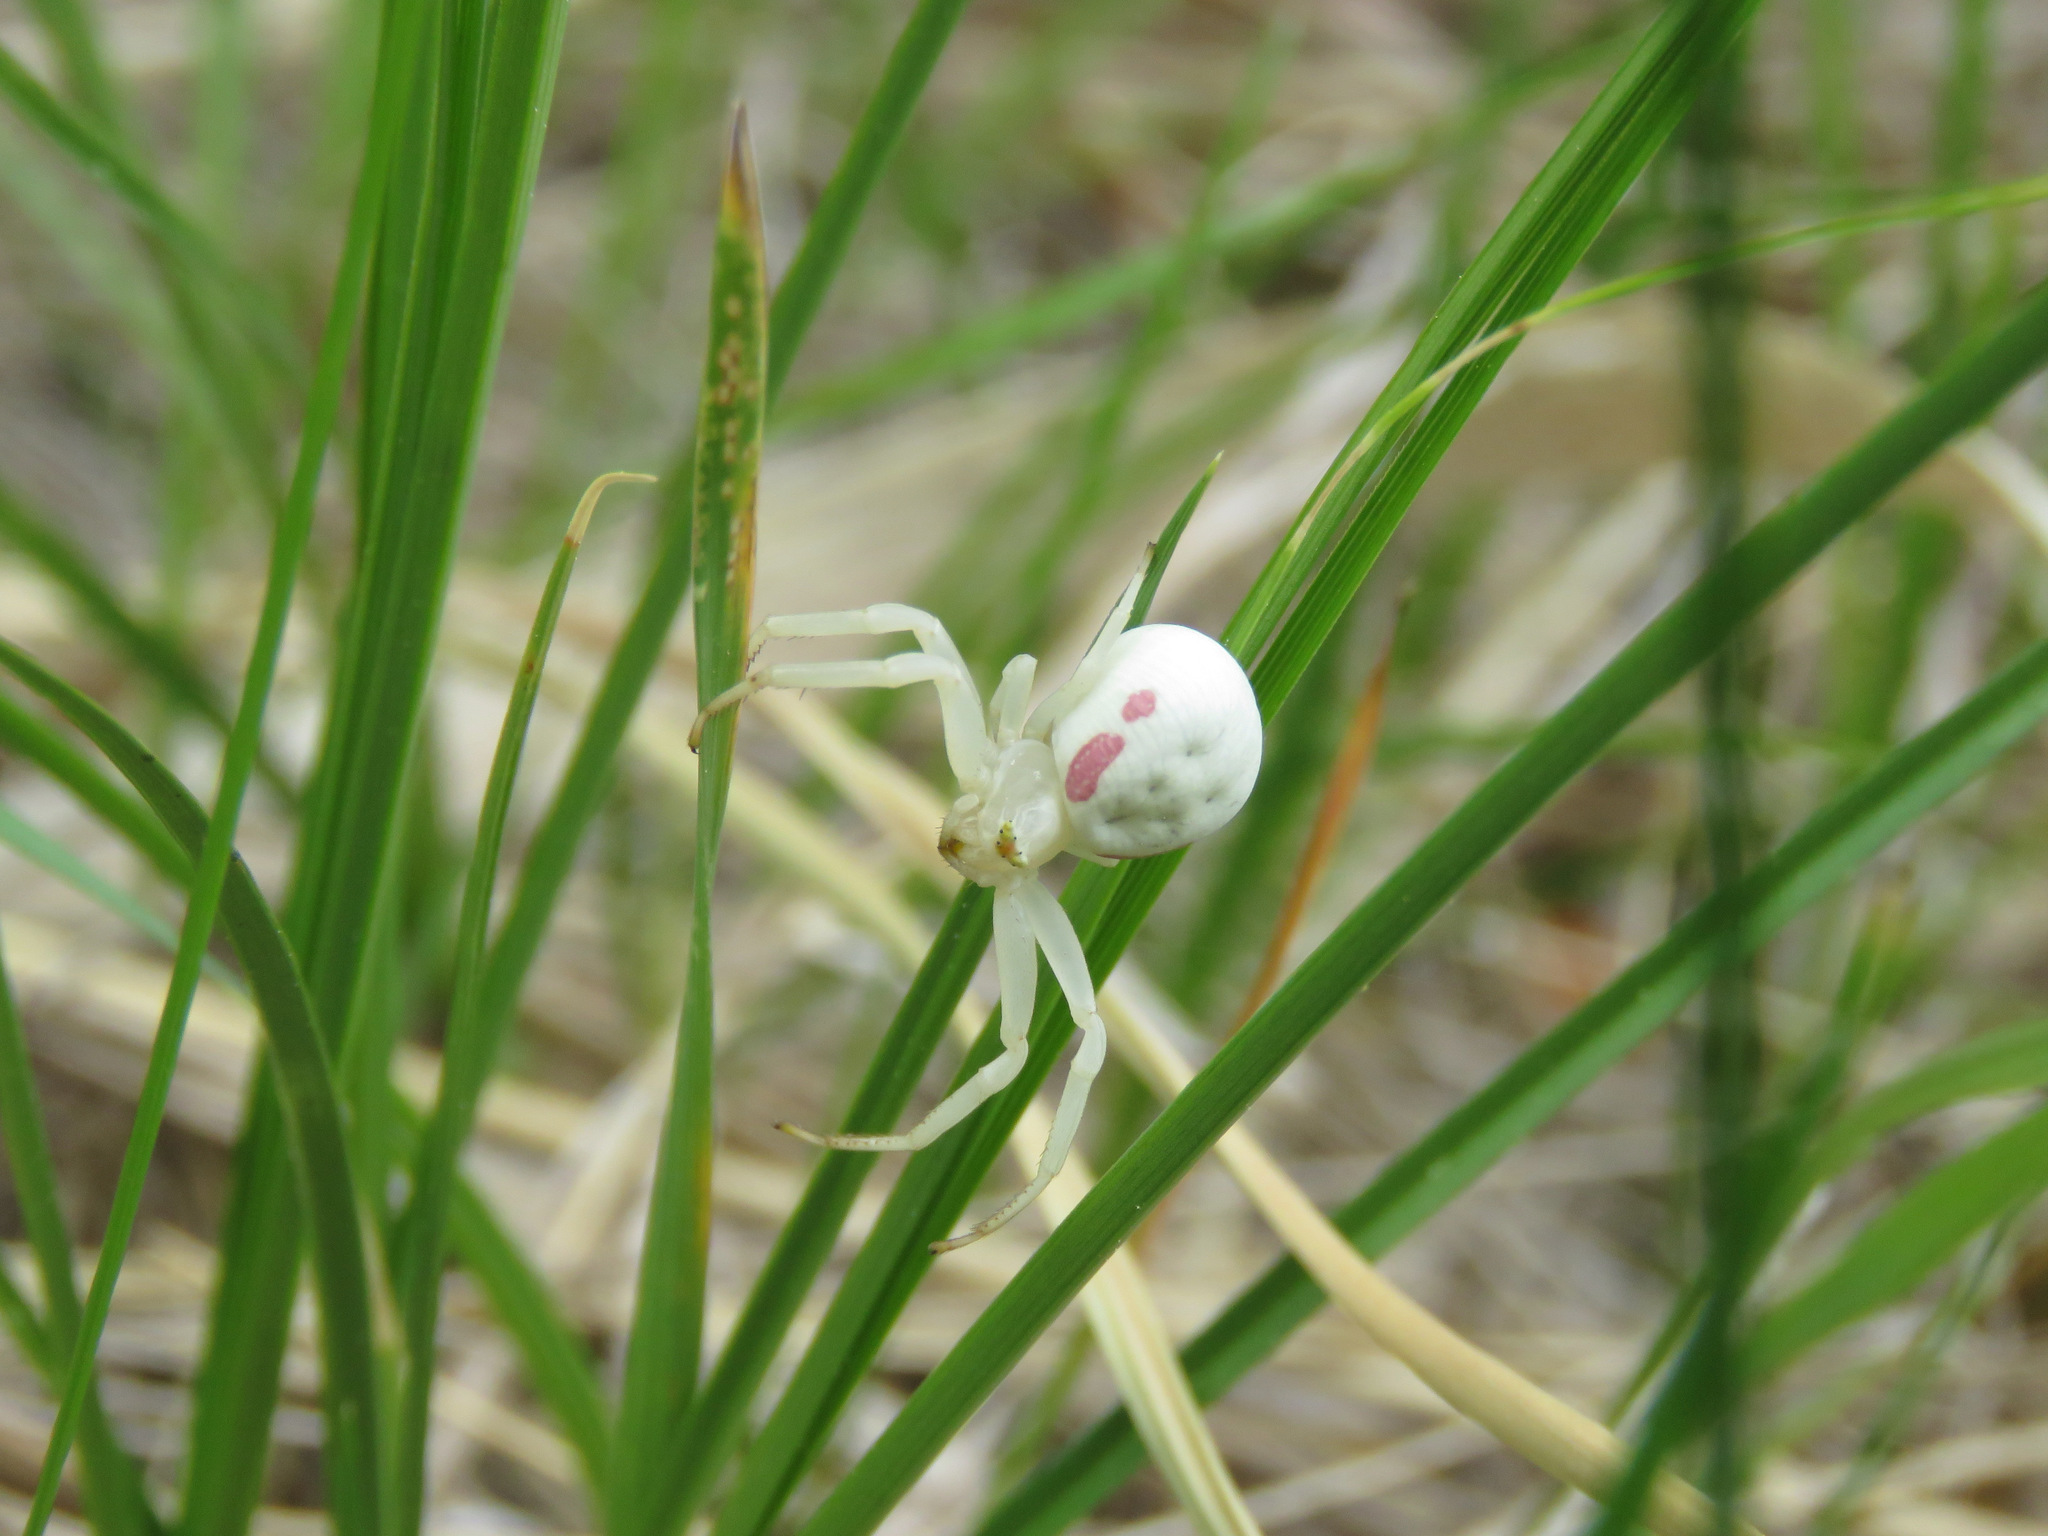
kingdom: Animalia
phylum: Arthropoda
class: Arachnida
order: Araneae
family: Thomisidae
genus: Misumena
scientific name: Misumena vatia
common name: Goldenrod crab spider
